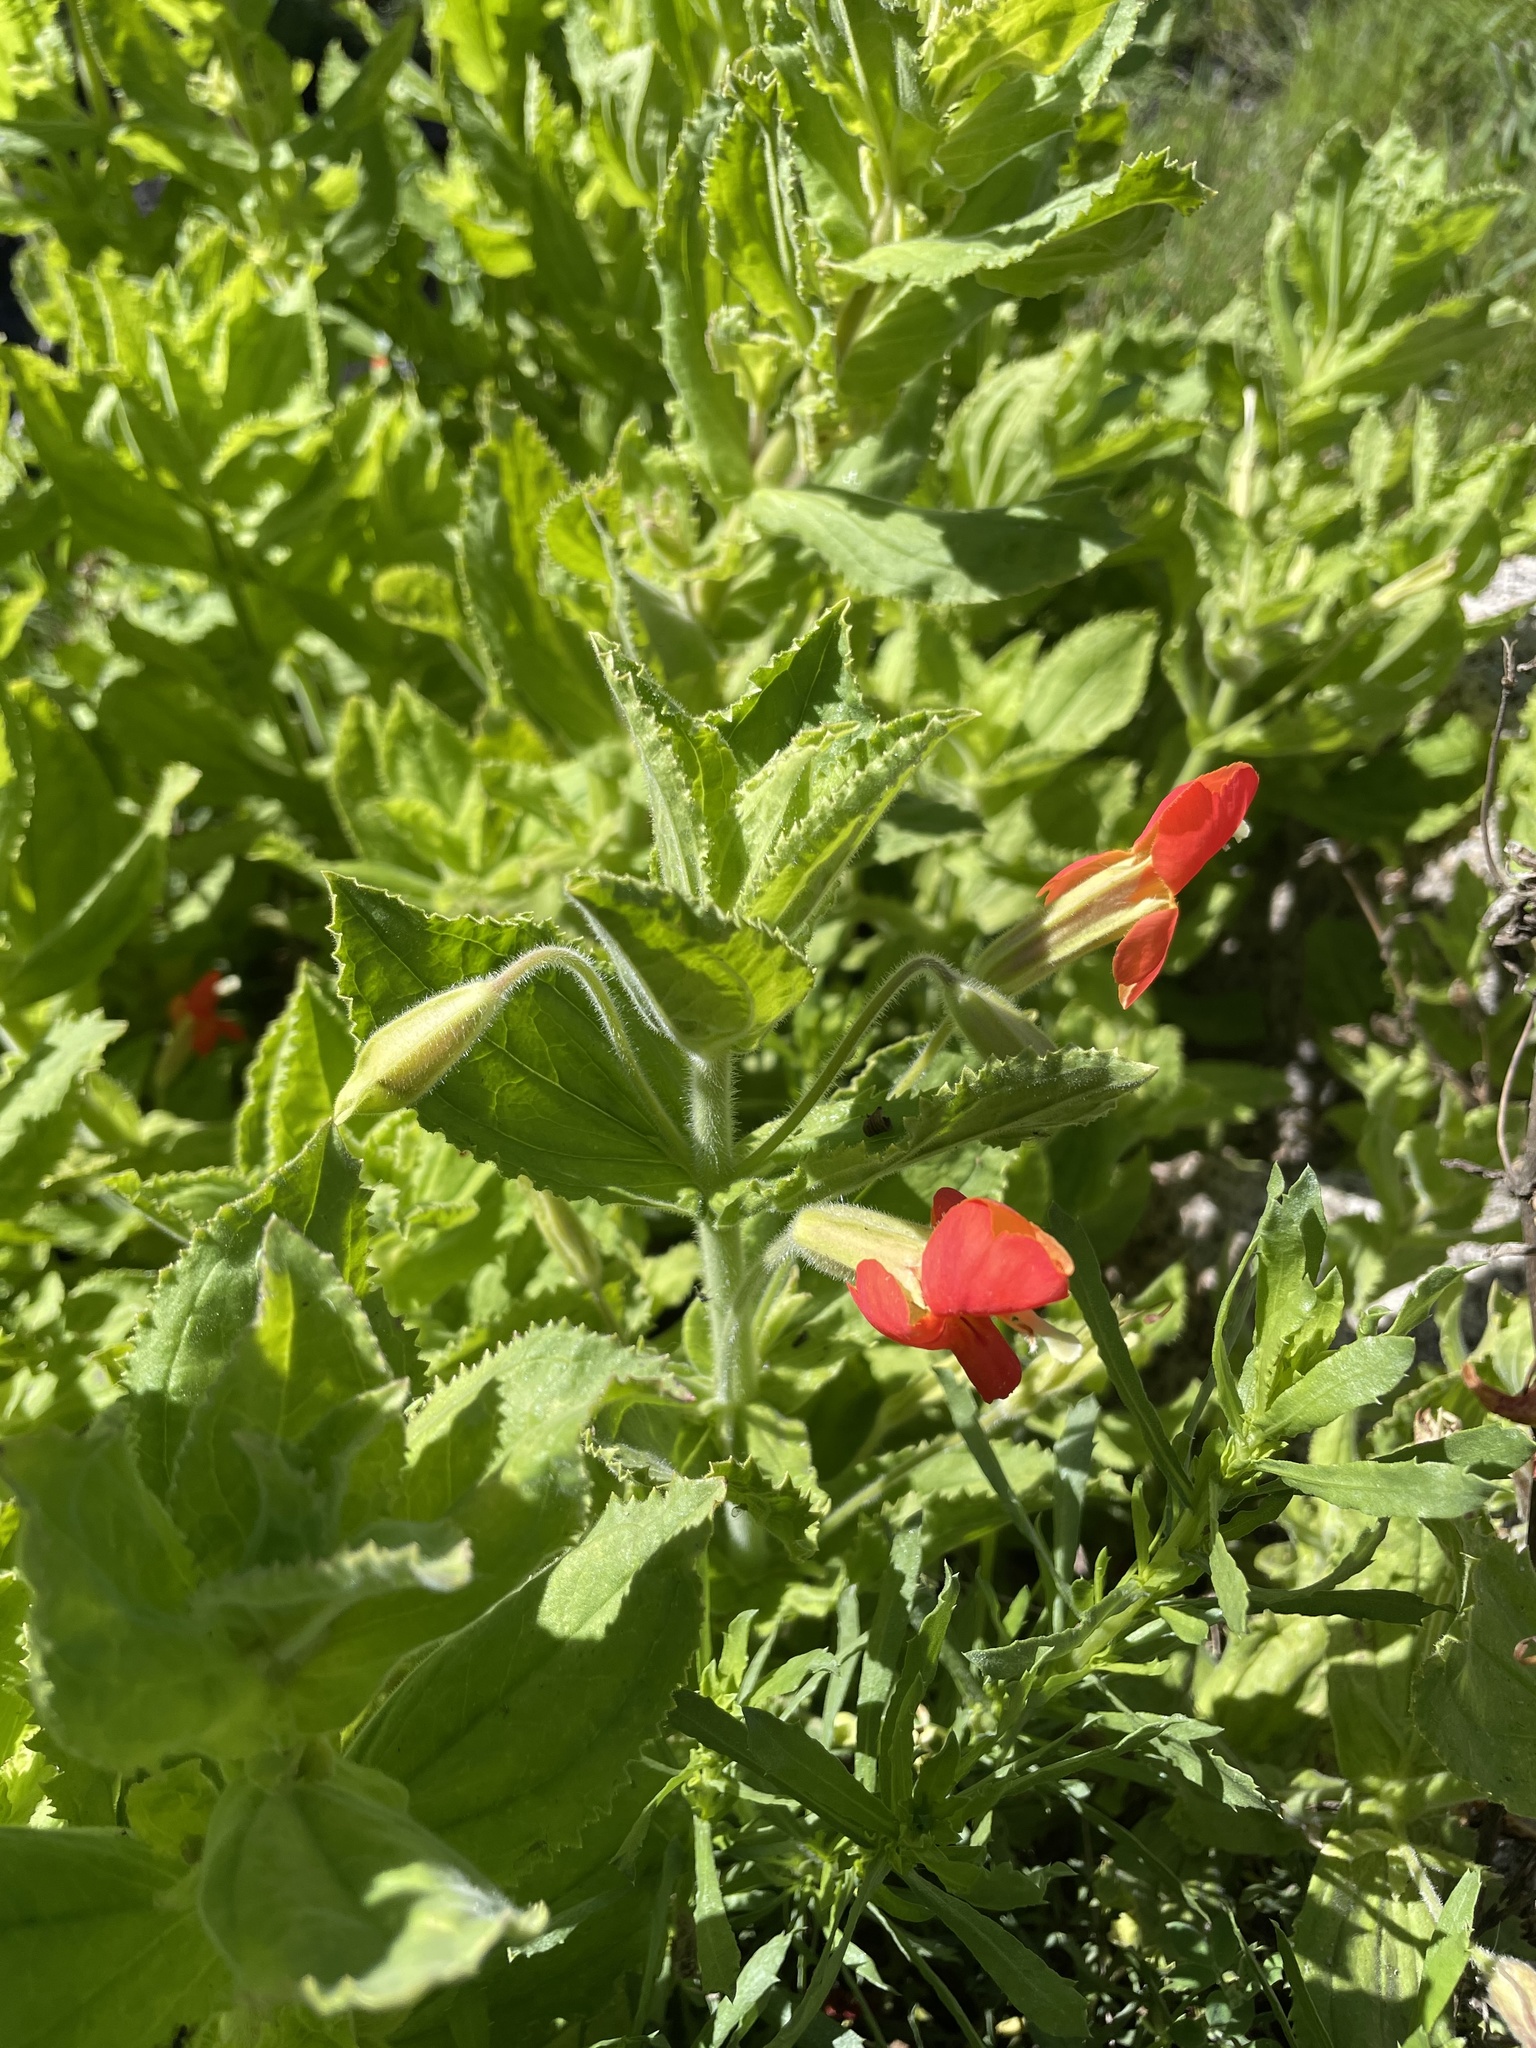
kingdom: Plantae
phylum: Tracheophyta
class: Magnoliopsida
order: Lamiales
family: Phrymaceae
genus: Erythranthe
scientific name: Erythranthe cardinalis
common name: Scarlet monkey-flower
